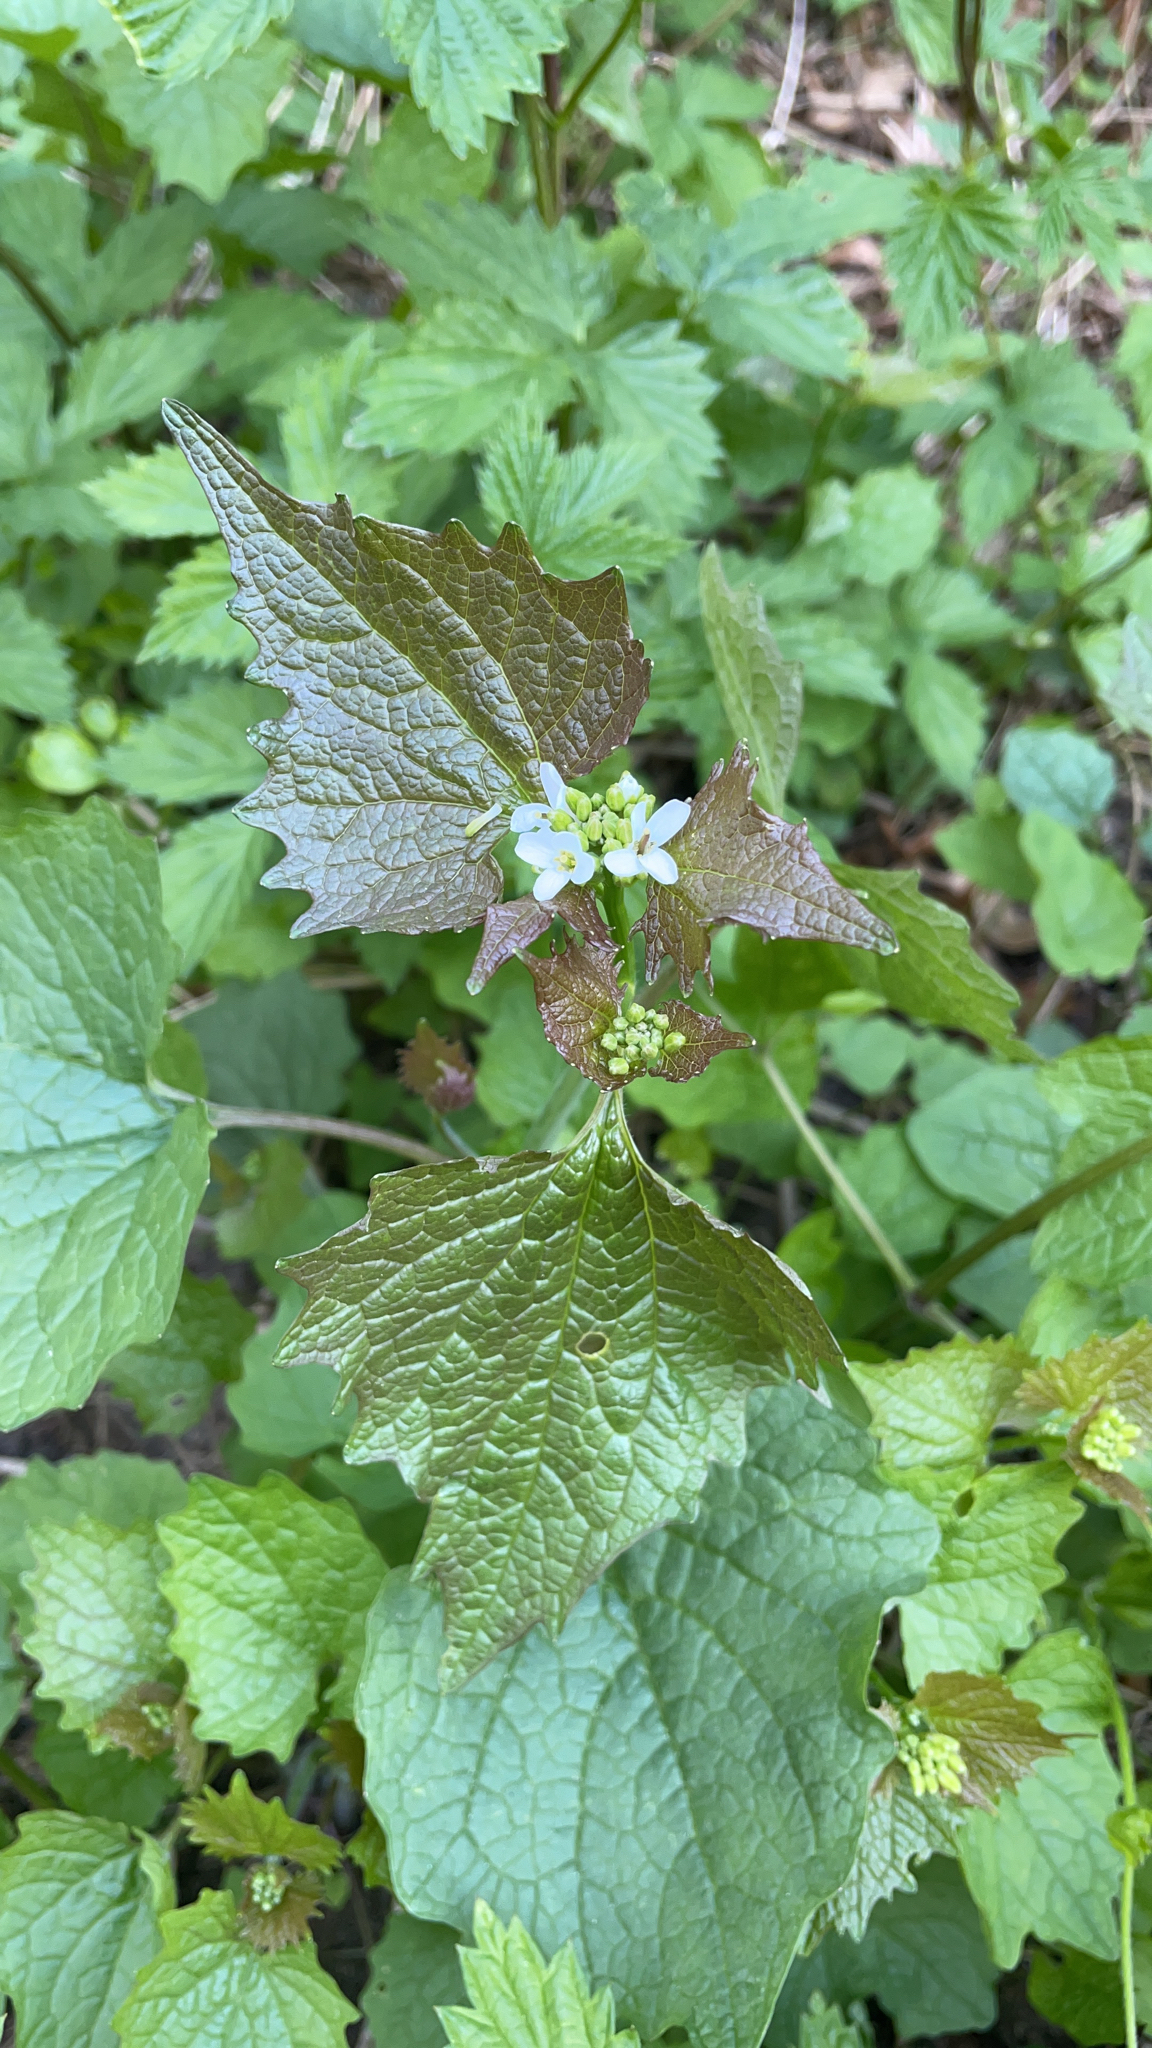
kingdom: Plantae
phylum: Tracheophyta
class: Magnoliopsida
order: Brassicales
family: Brassicaceae
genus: Alliaria
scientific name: Alliaria petiolata
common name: Garlic mustard
